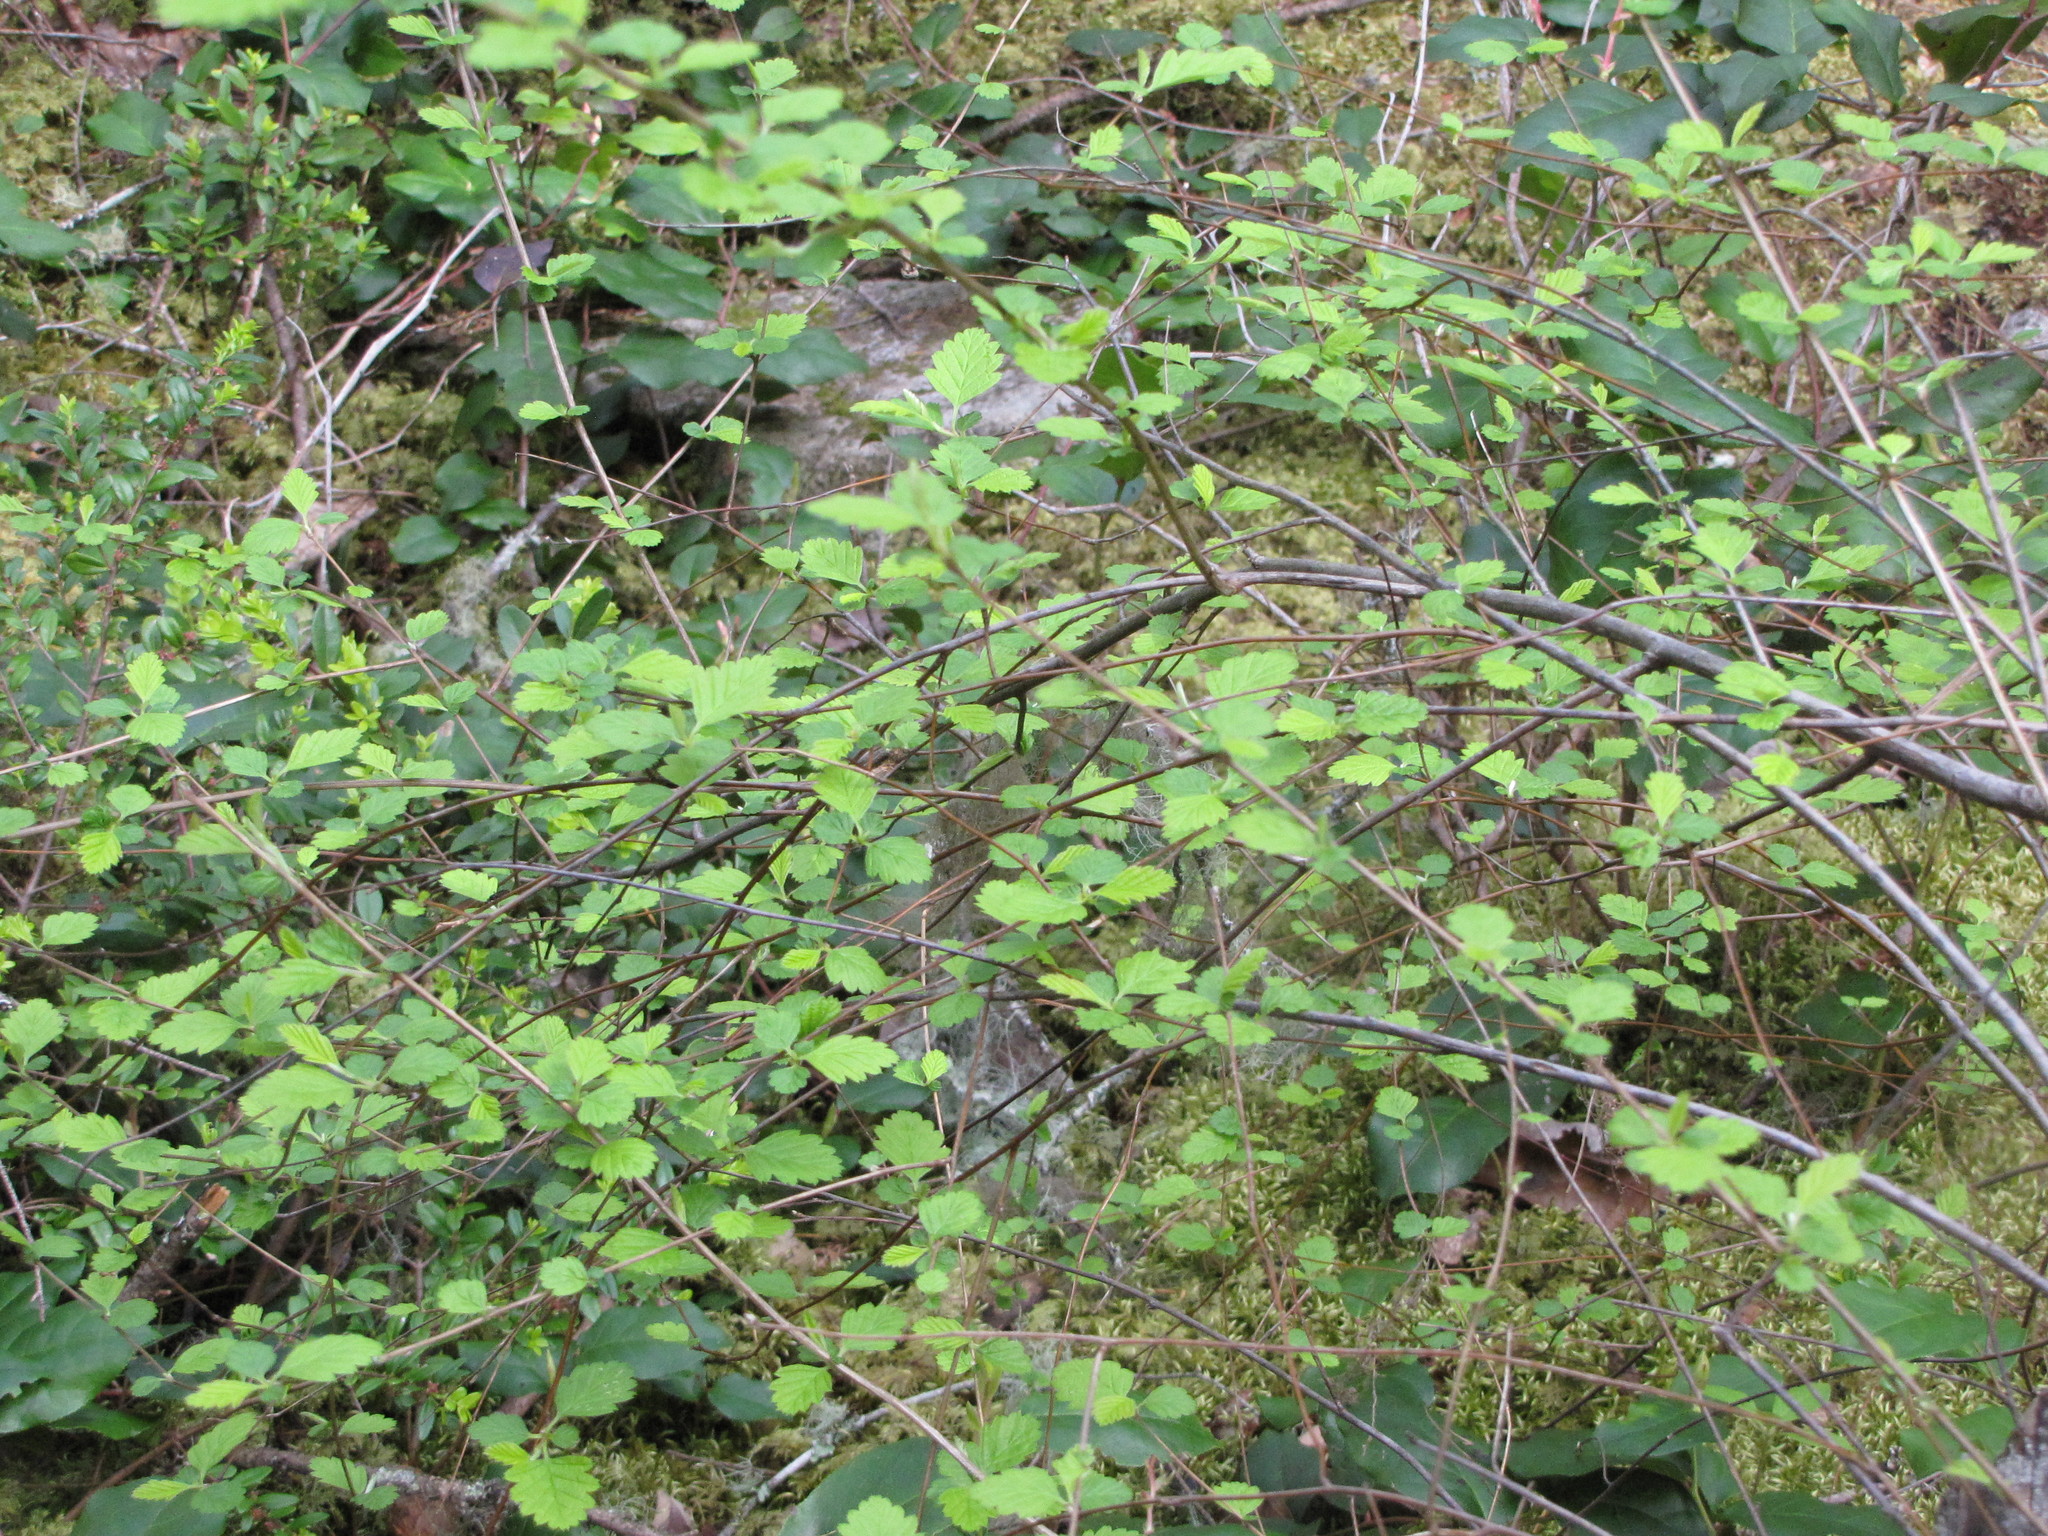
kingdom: Plantae
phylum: Tracheophyta
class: Magnoliopsida
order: Rosales
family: Rosaceae
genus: Holodiscus
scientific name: Holodiscus discolor
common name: Oceanspray
